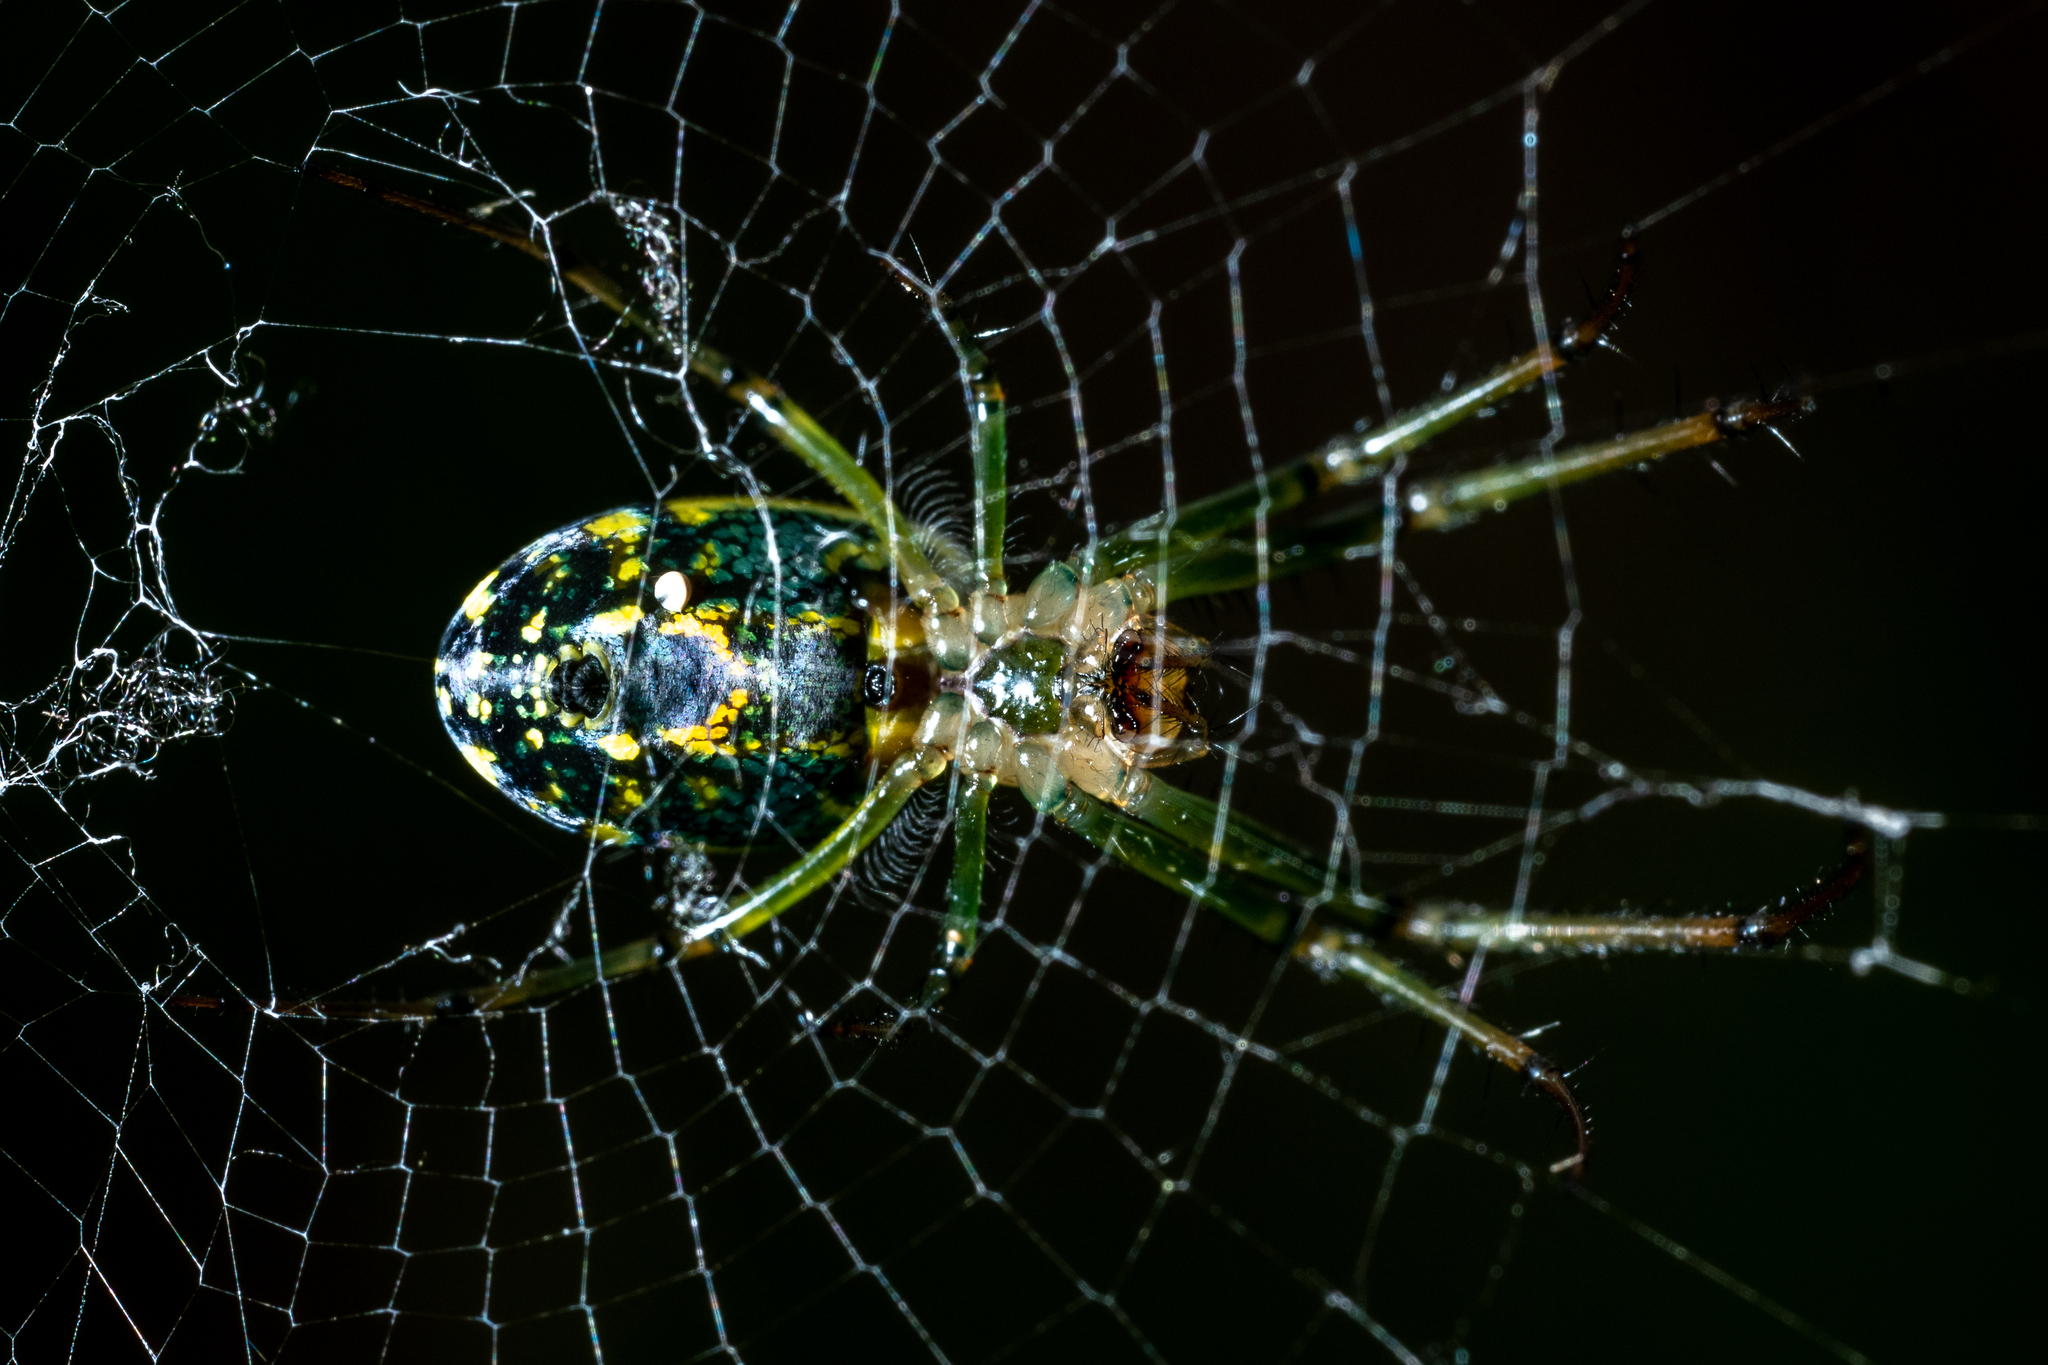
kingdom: Animalia
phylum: Arthropoda
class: Arachnida
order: Araneae
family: Tetragnathidae
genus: Leucauge
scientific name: Leucauge venusta
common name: Longjawed orb weavers
